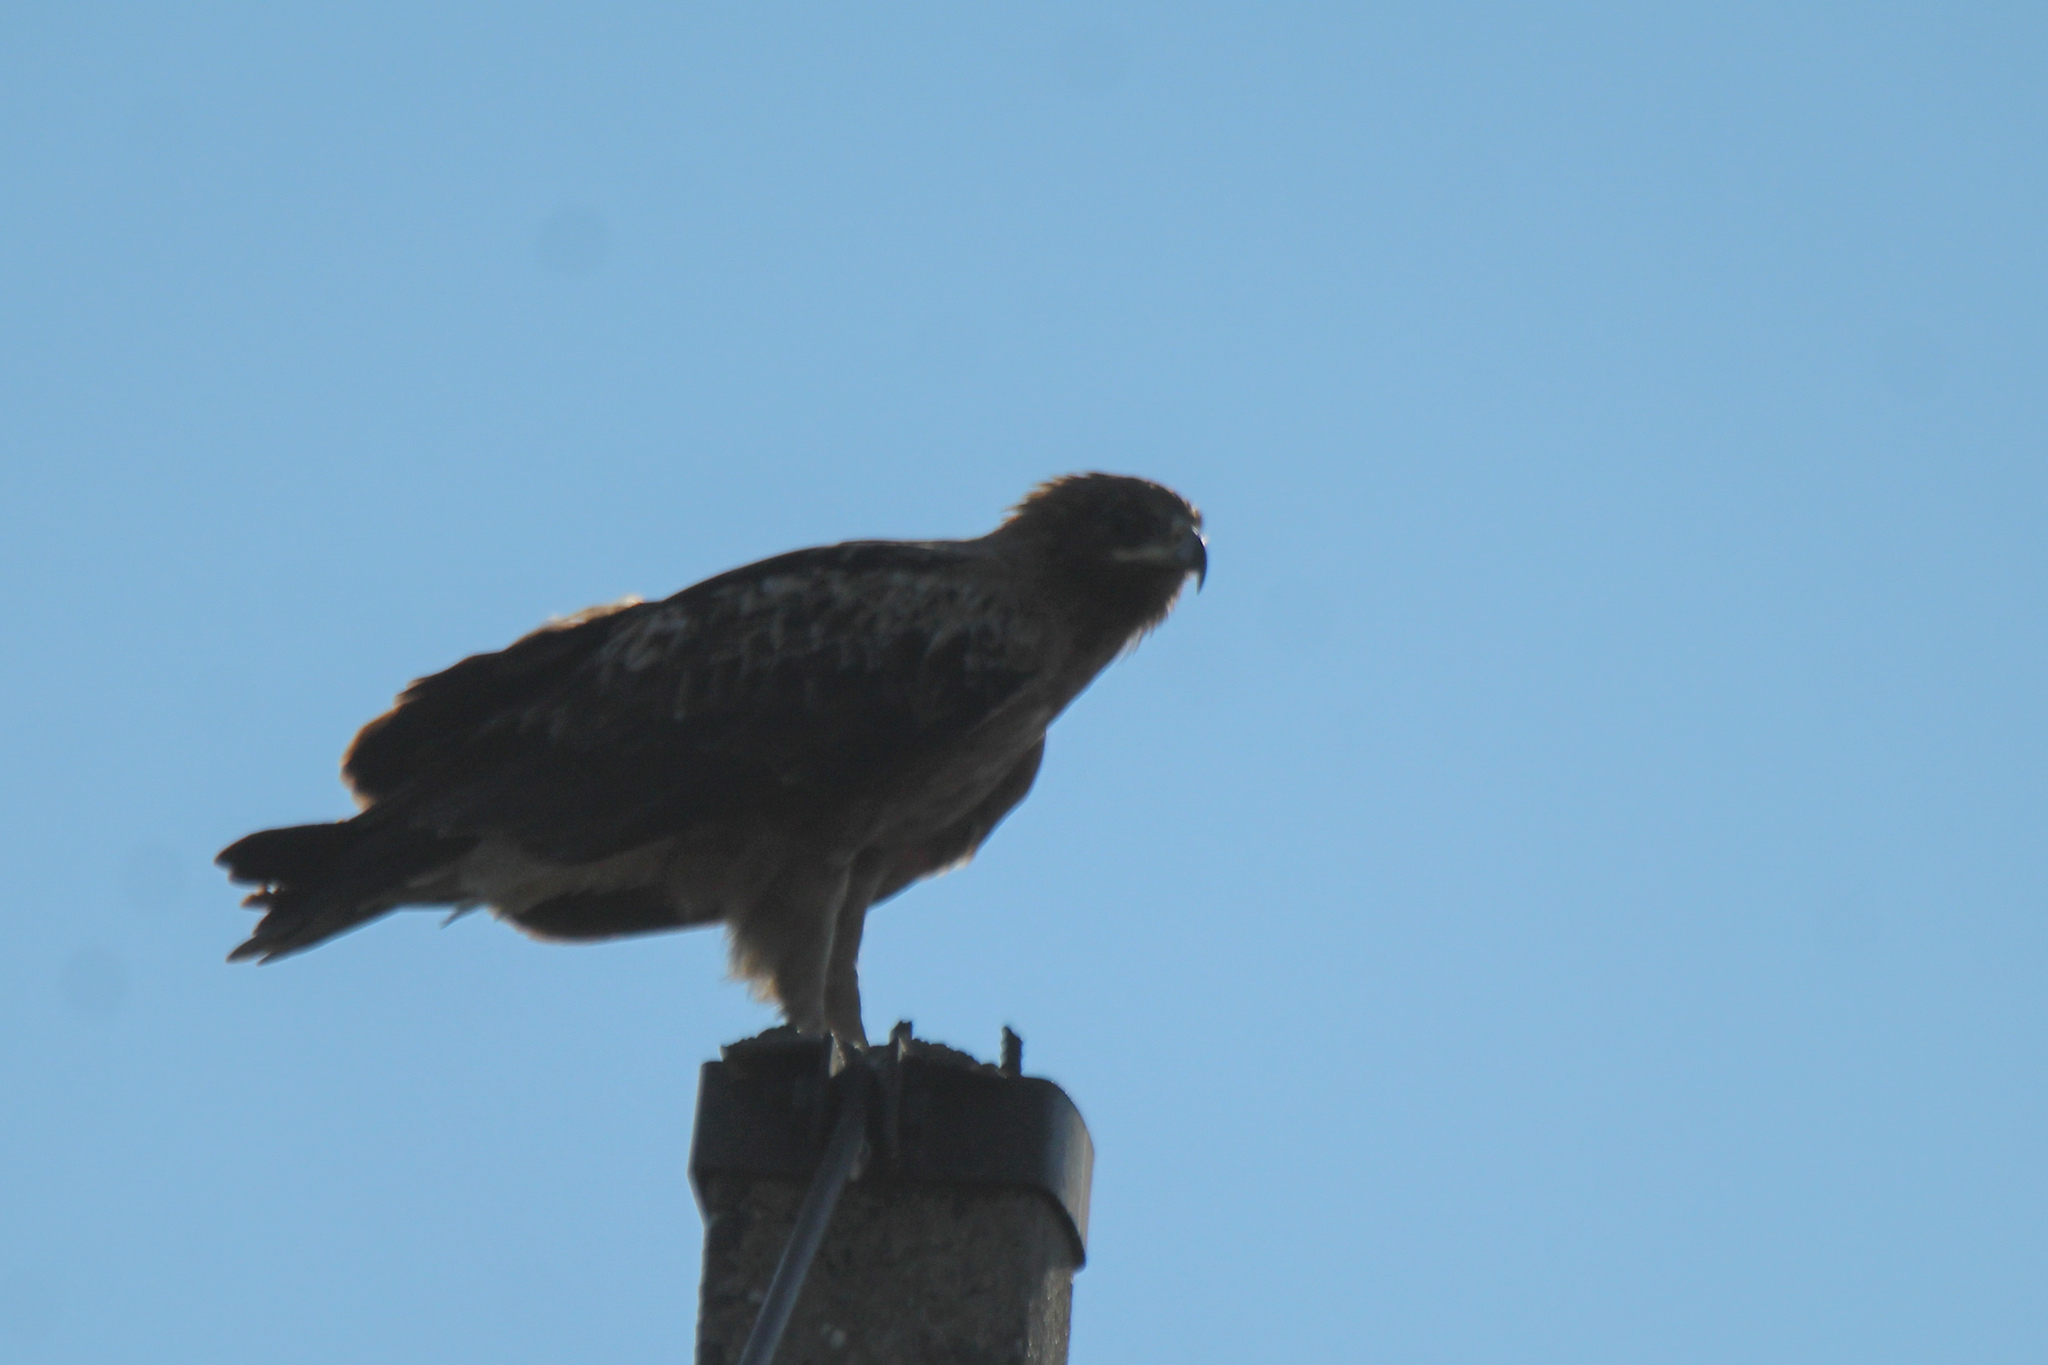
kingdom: Animalia
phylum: Chordata
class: Aves
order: Accipitriformes
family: Accipitridae
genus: Aquila
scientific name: Aquila clanga
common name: Greater spotted eagle
